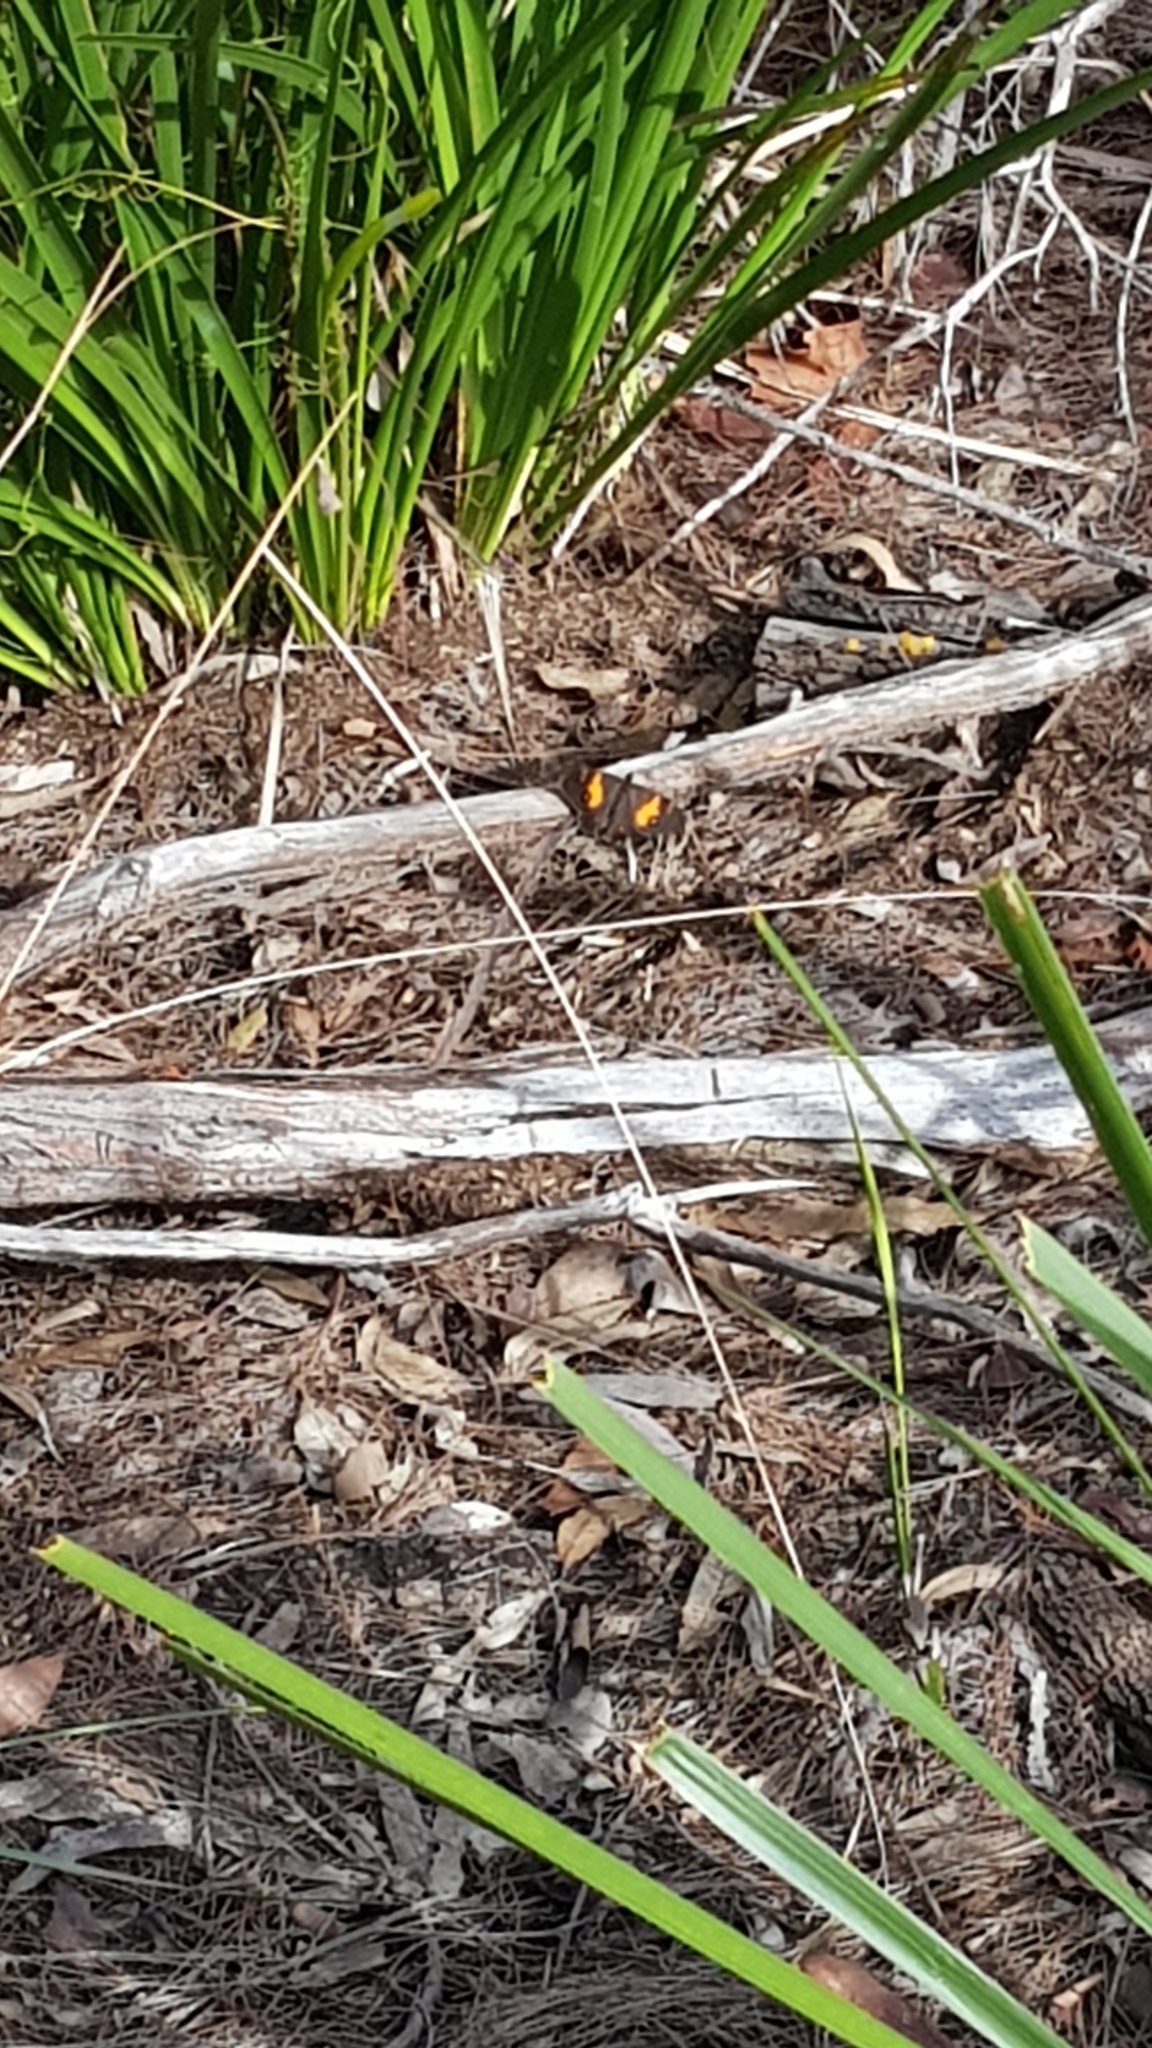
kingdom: Animalia
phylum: Arthropoda
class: Insecta
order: Lepidoptera
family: Nymphalidae
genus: Tisiphone
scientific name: Tisiphone abeona
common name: Swordgrass brown
